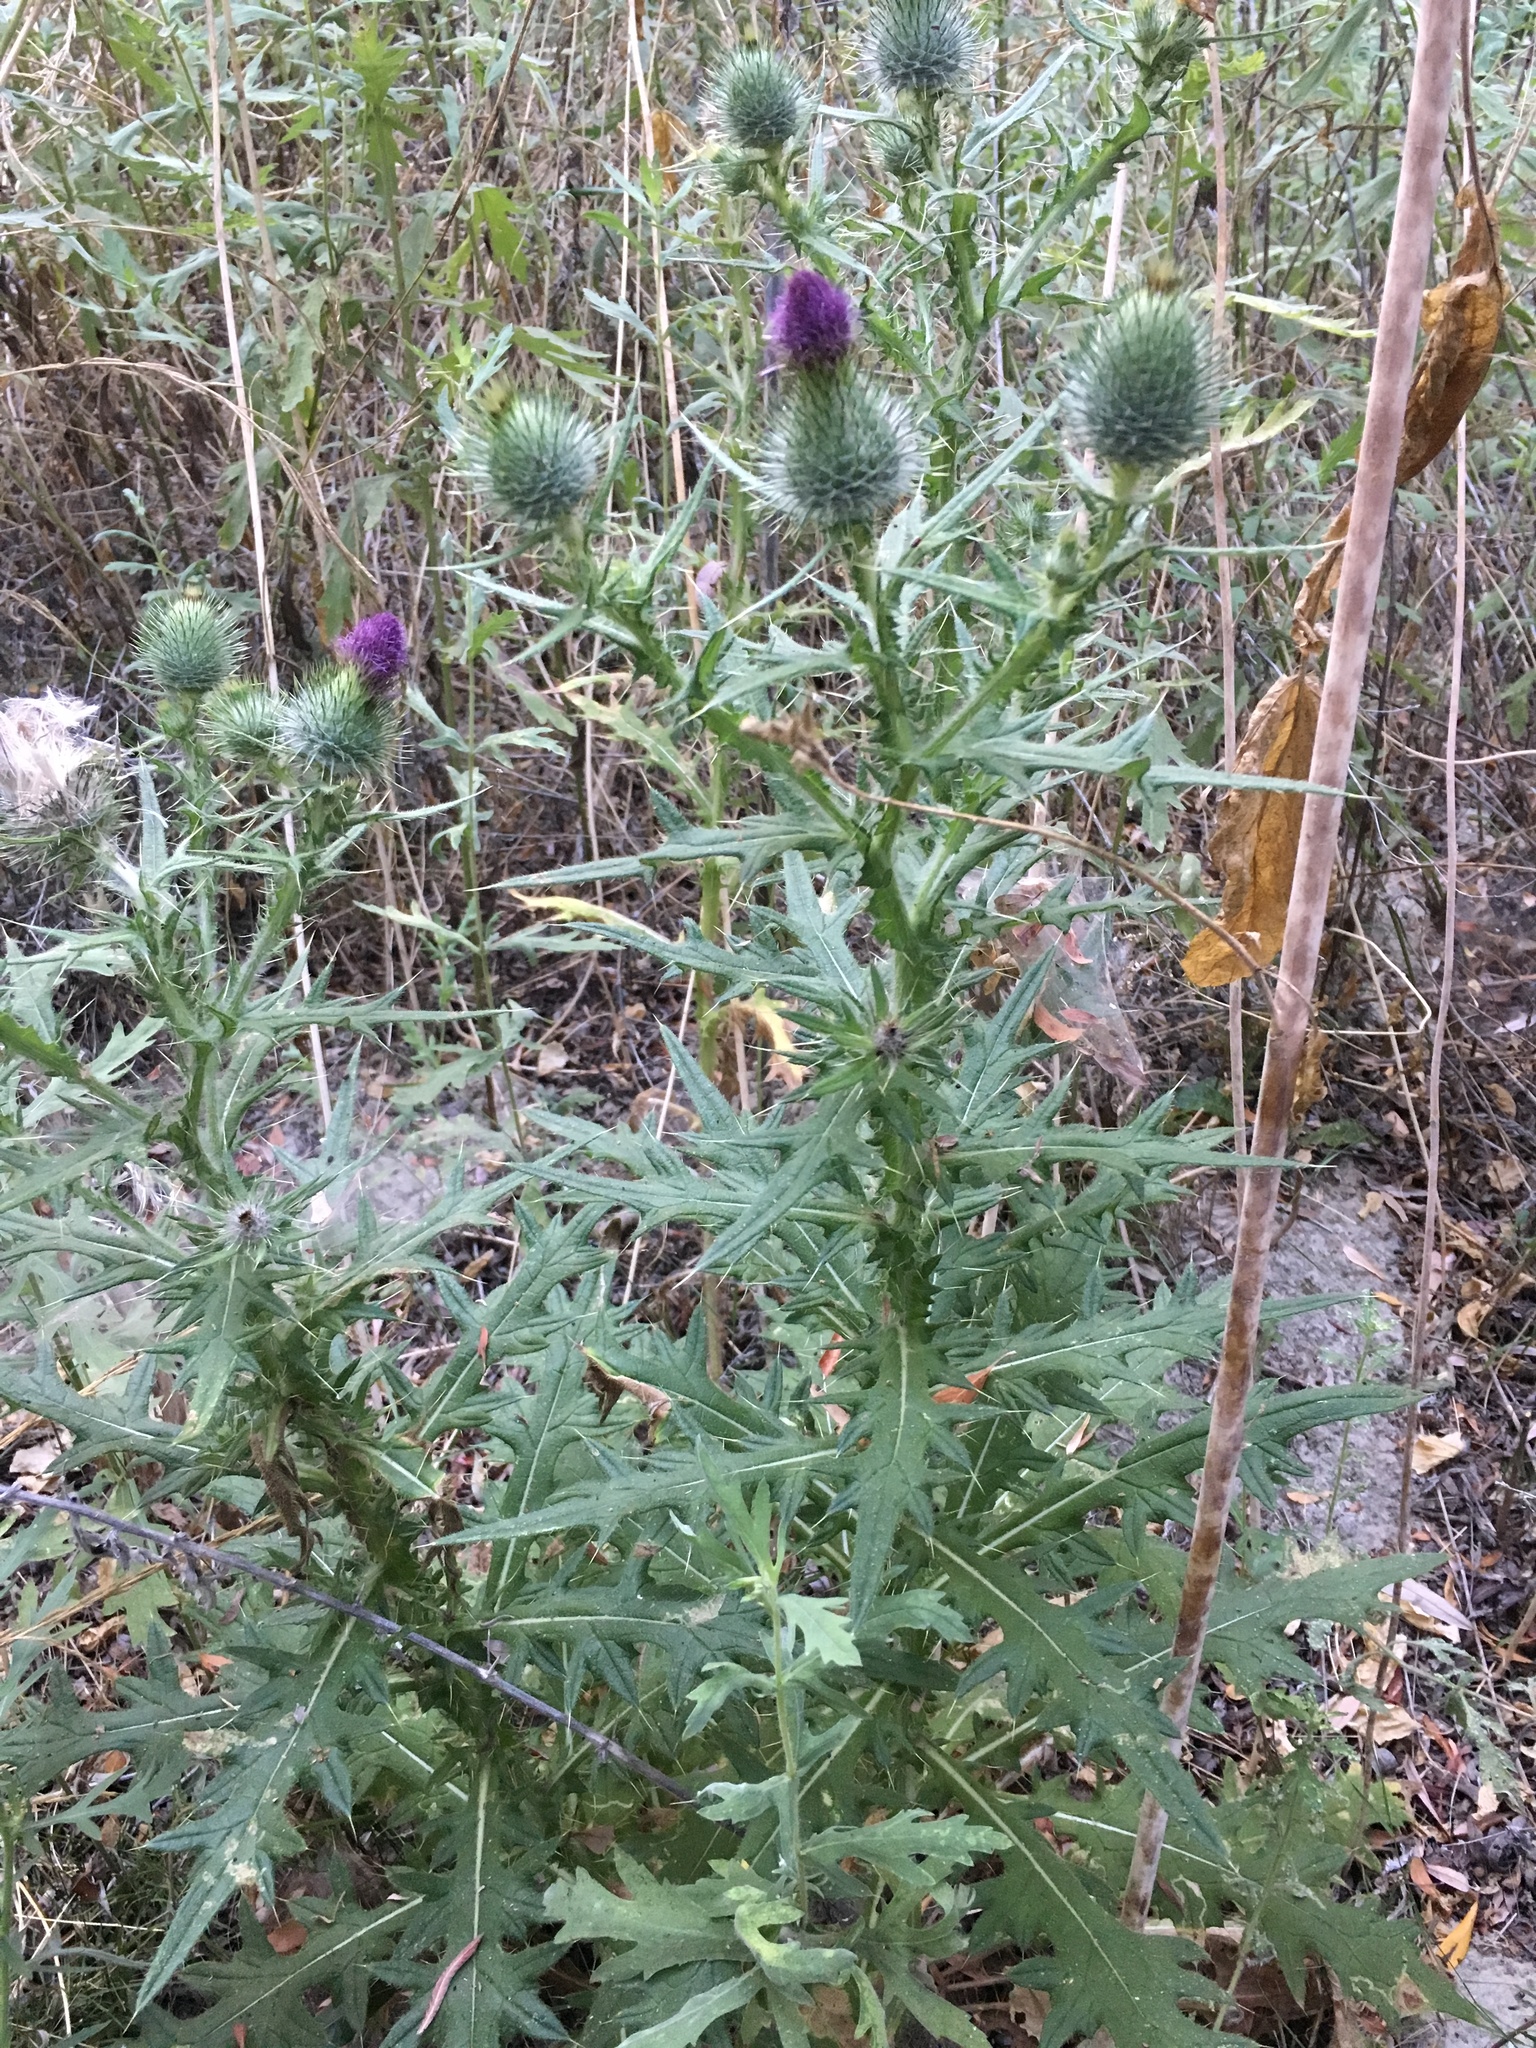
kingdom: Plantae
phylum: Tracheophyta
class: Magnoliopsida
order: Asterales
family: Asteraceae
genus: Cirsium
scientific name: Cirsium vulgare
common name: Bull thistle
